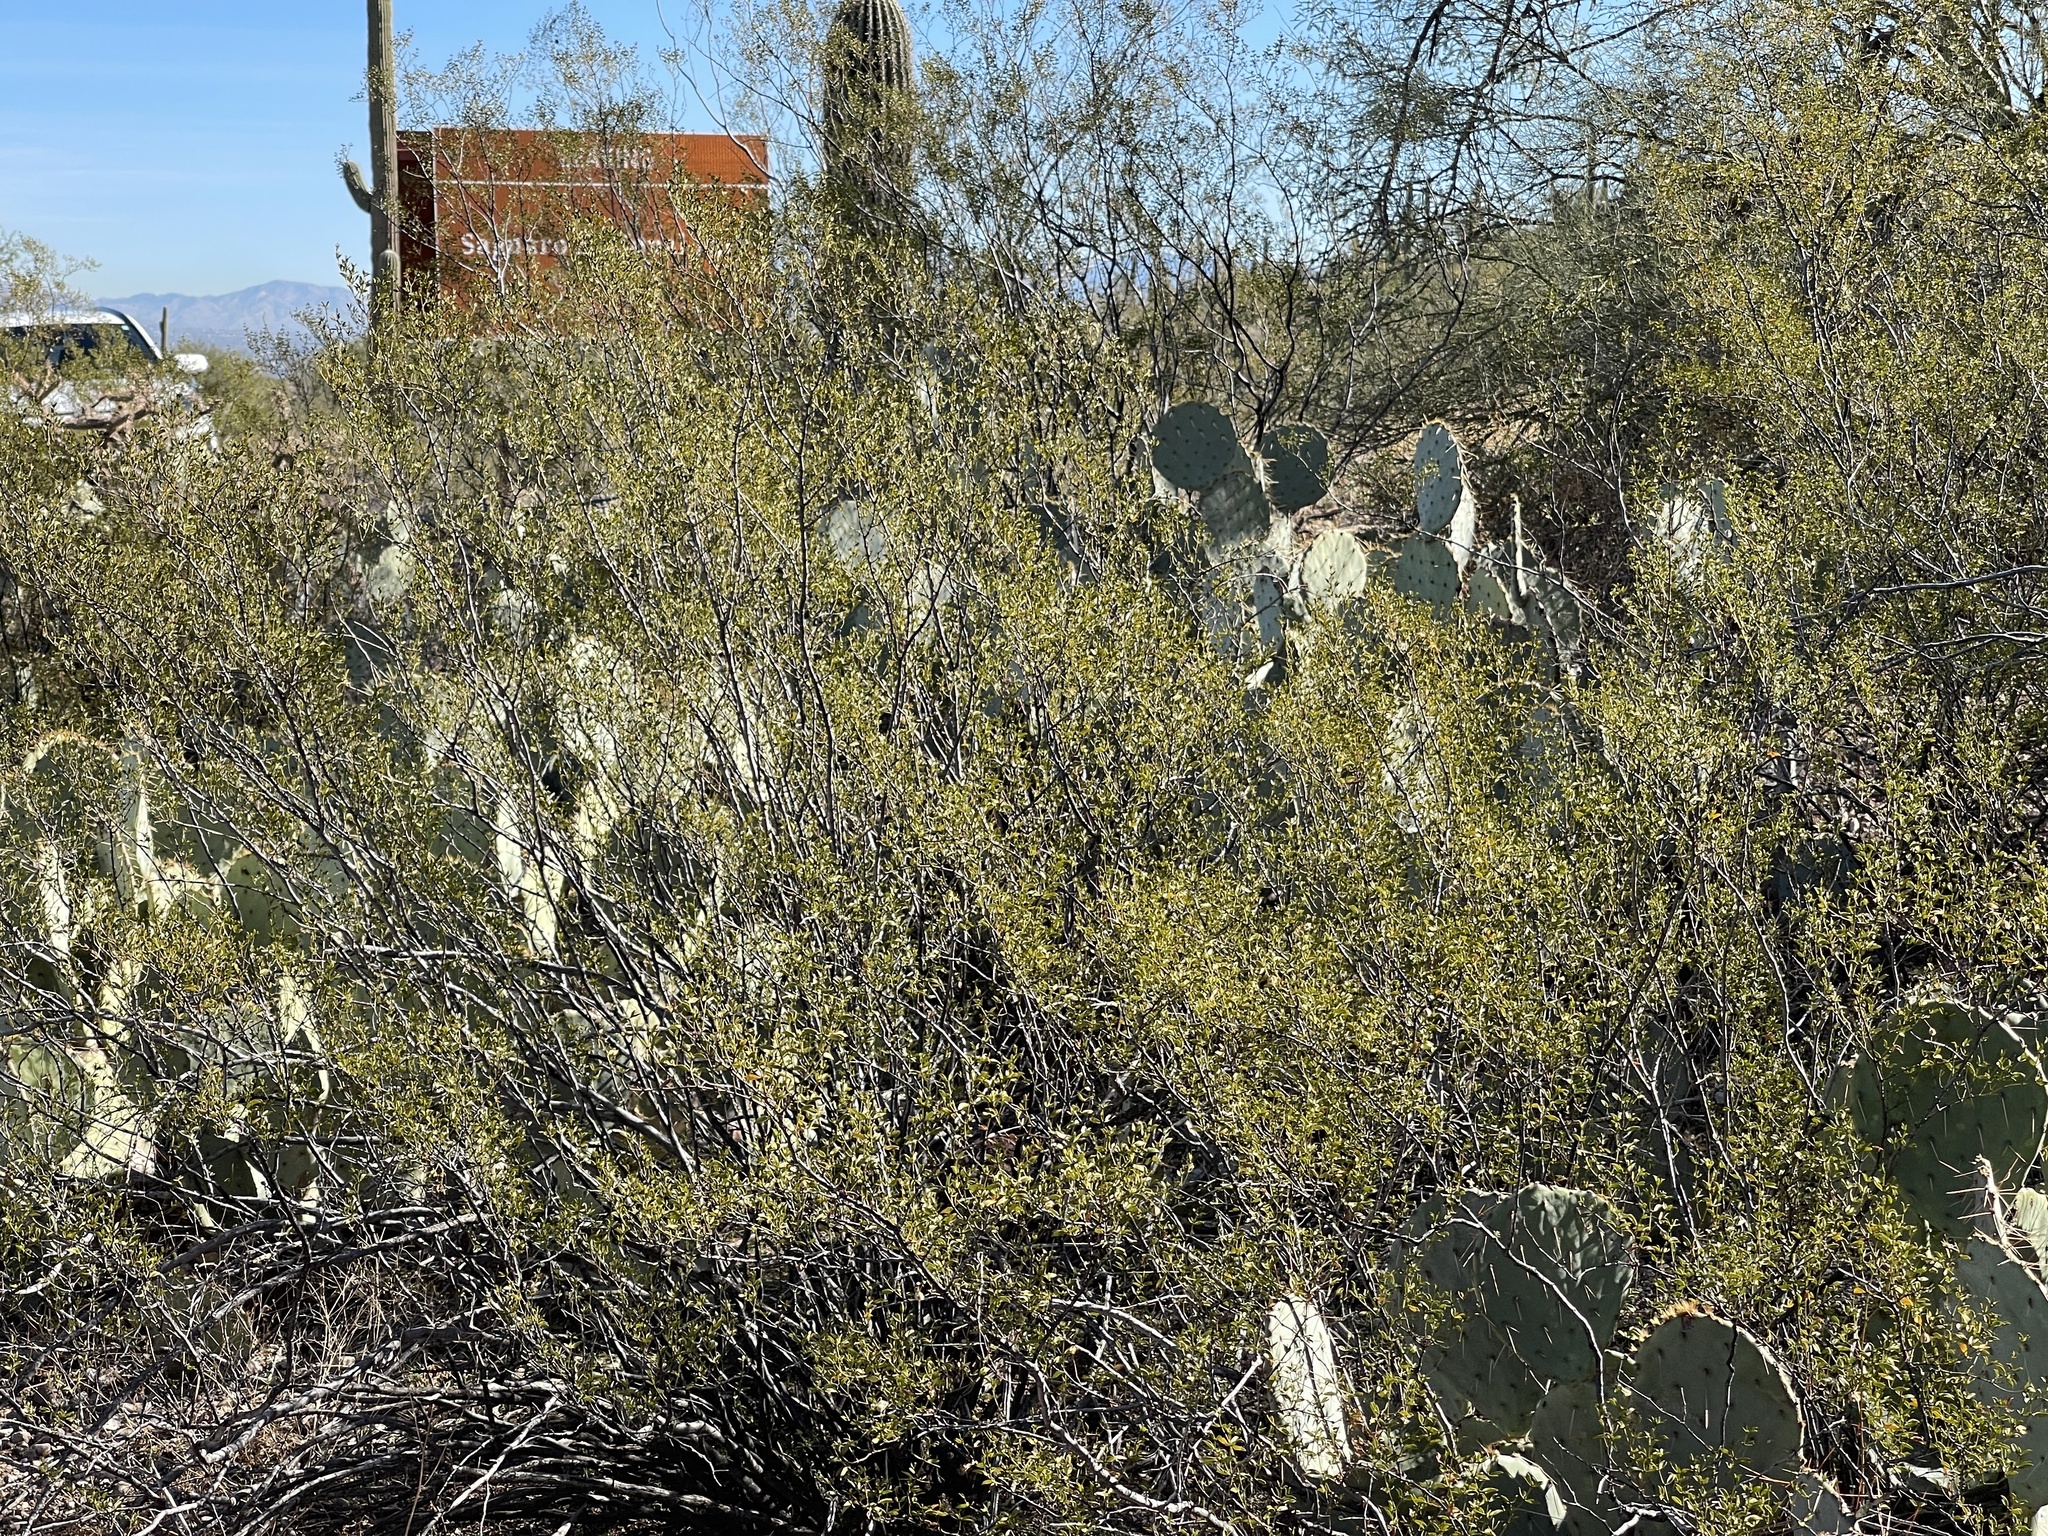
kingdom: Plantae
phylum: Tracheophyta
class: Magnoliopsida
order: Zygophyllales
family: Zygophyllaceae
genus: Larrea
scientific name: Larrea tridentata
